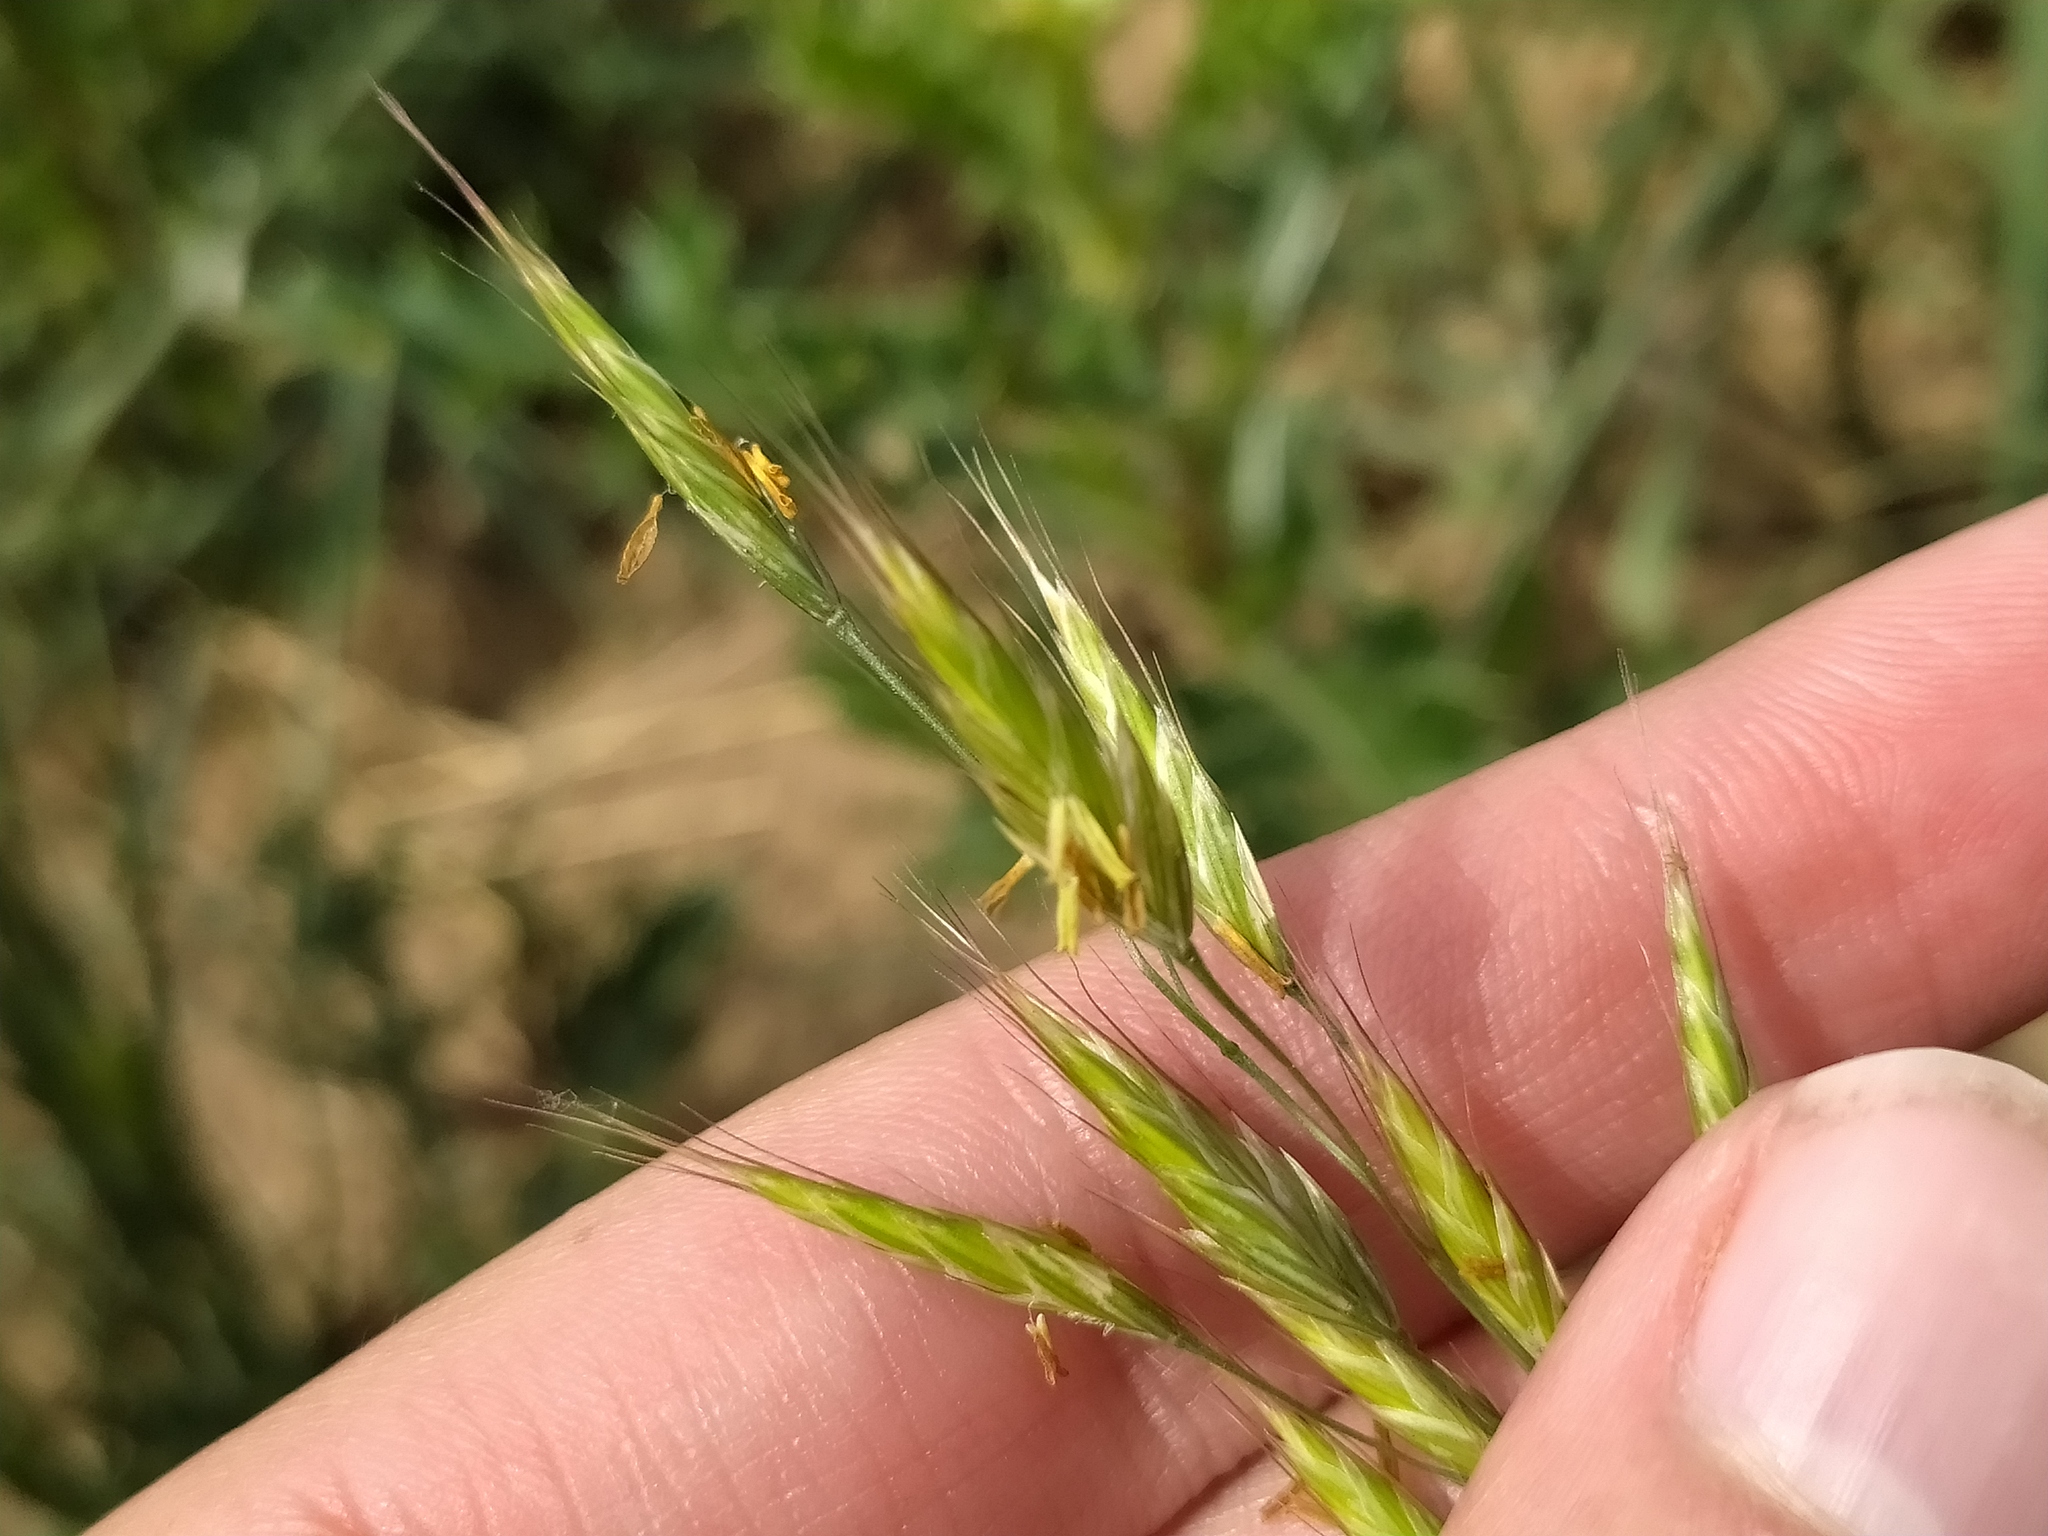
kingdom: Plantae
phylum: Tracheophyta
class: Liliopsida
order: Poales
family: Poaceae
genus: Bromus
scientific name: Bromus arvensis
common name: Field brome
